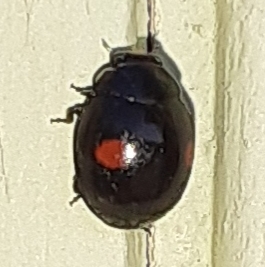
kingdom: Animalia
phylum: Arthropoda
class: Insecta
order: Coleoptera
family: Coccinellidae
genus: Chilocorus
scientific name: Chilocorus stigma
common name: Twicestabbed lady beetle
